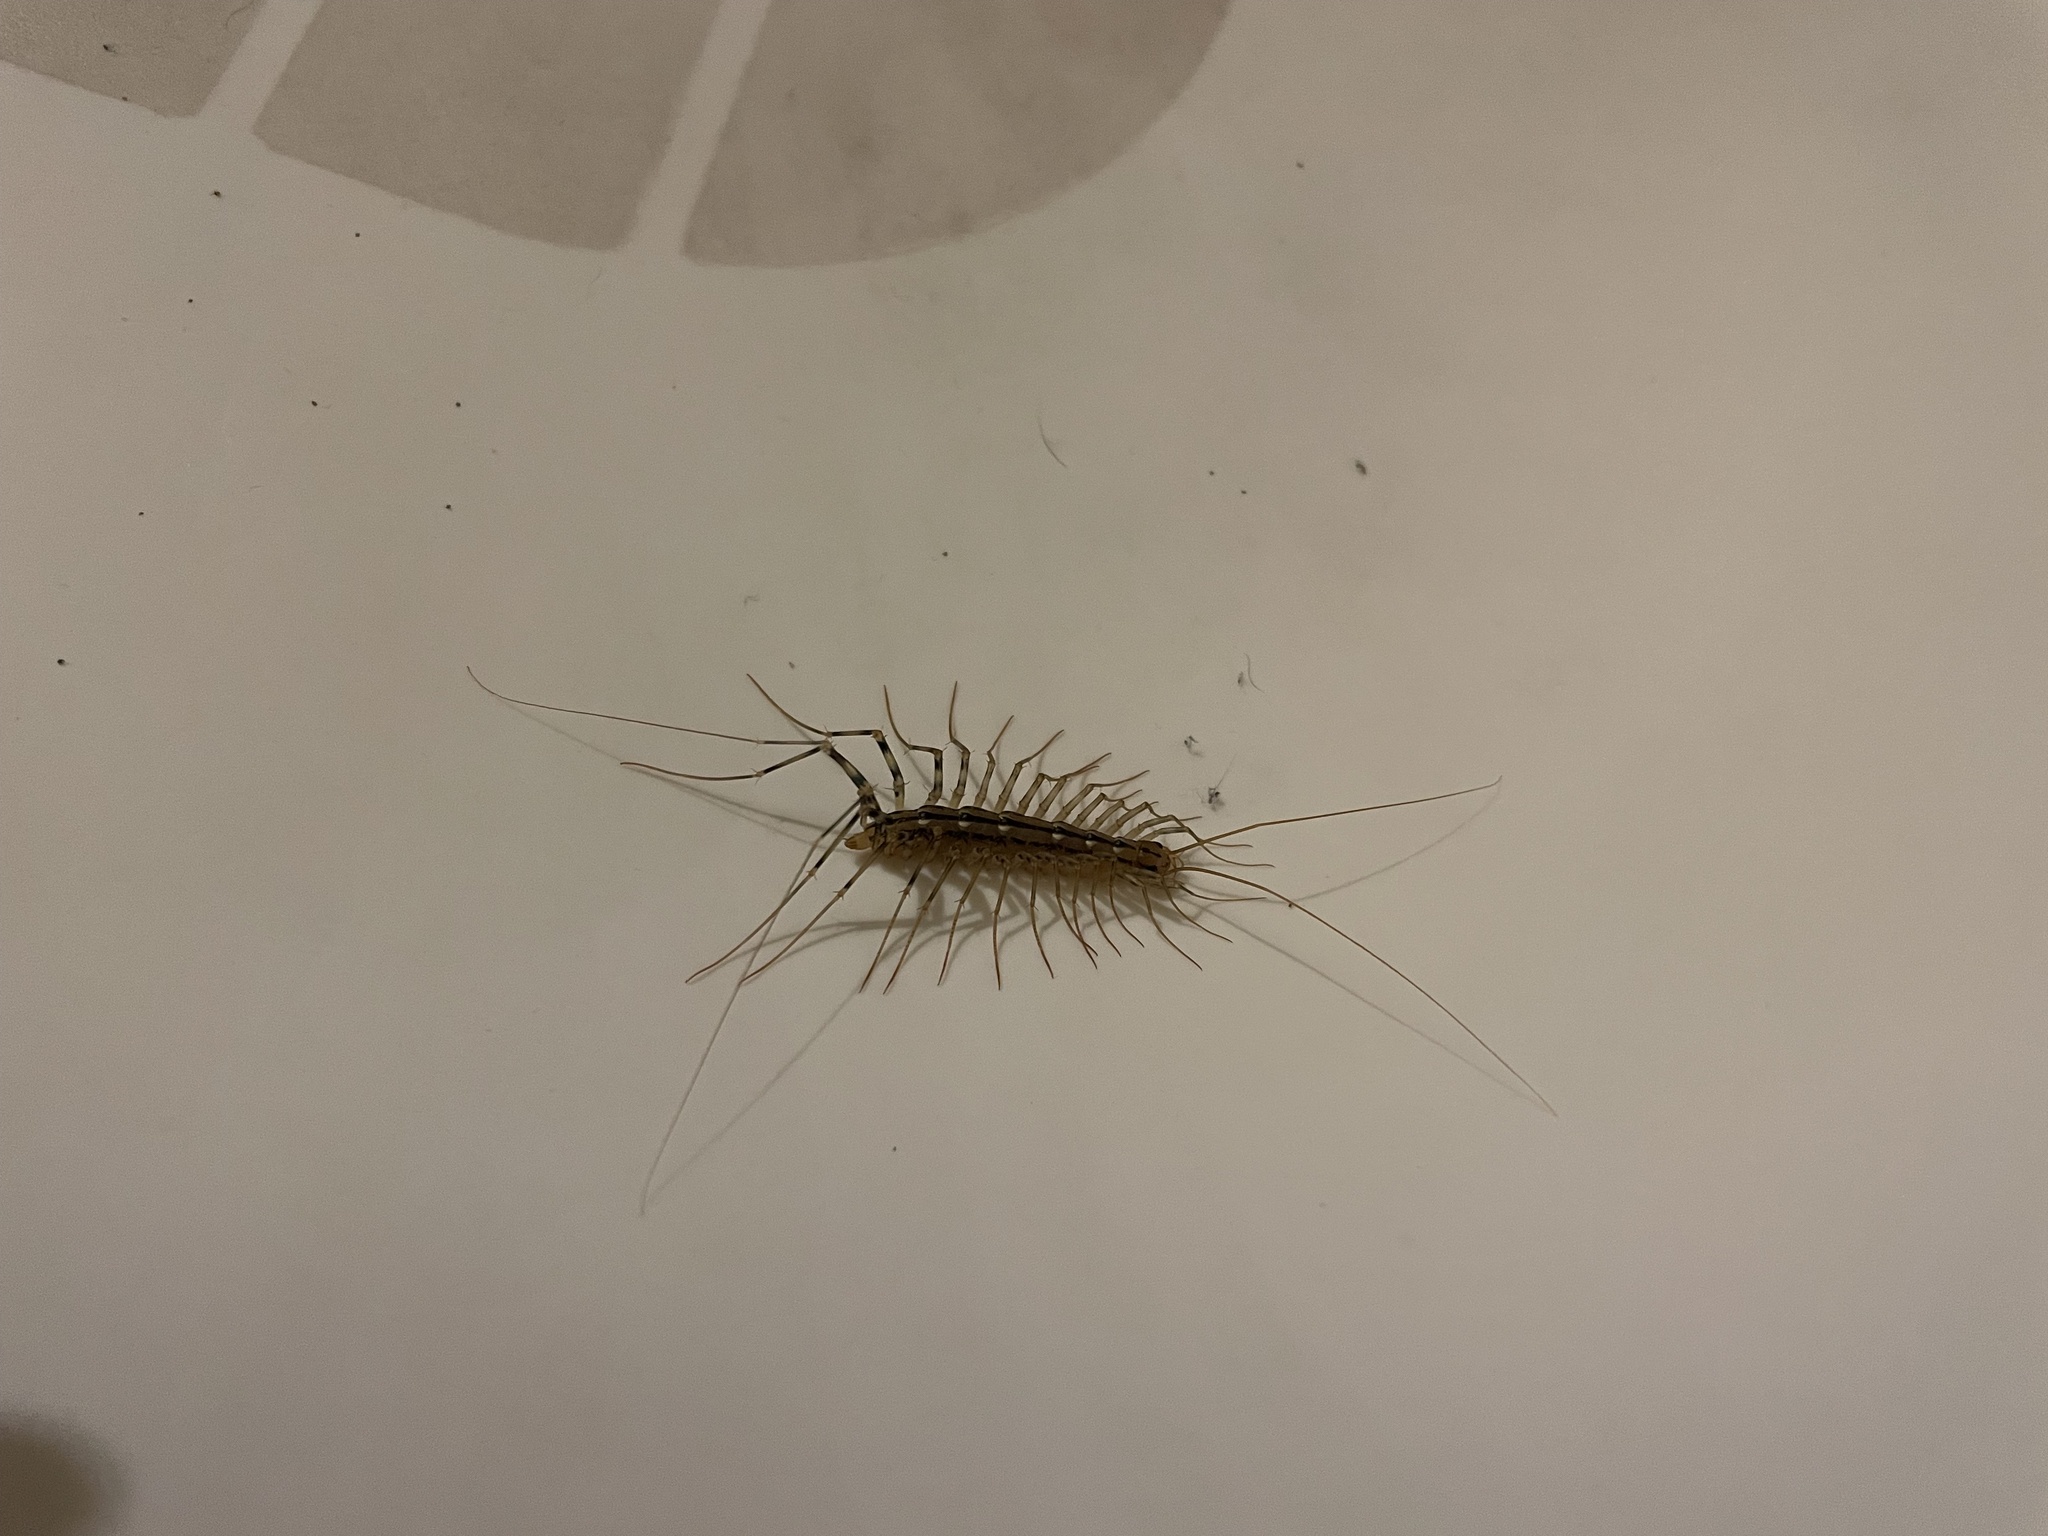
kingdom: Animalia
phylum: Arthropoda
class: Chilopoda
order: Scutigeromorpha
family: Scutigeridae
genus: Scutigera
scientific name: Scutigera coleoptrata
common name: House centipede
